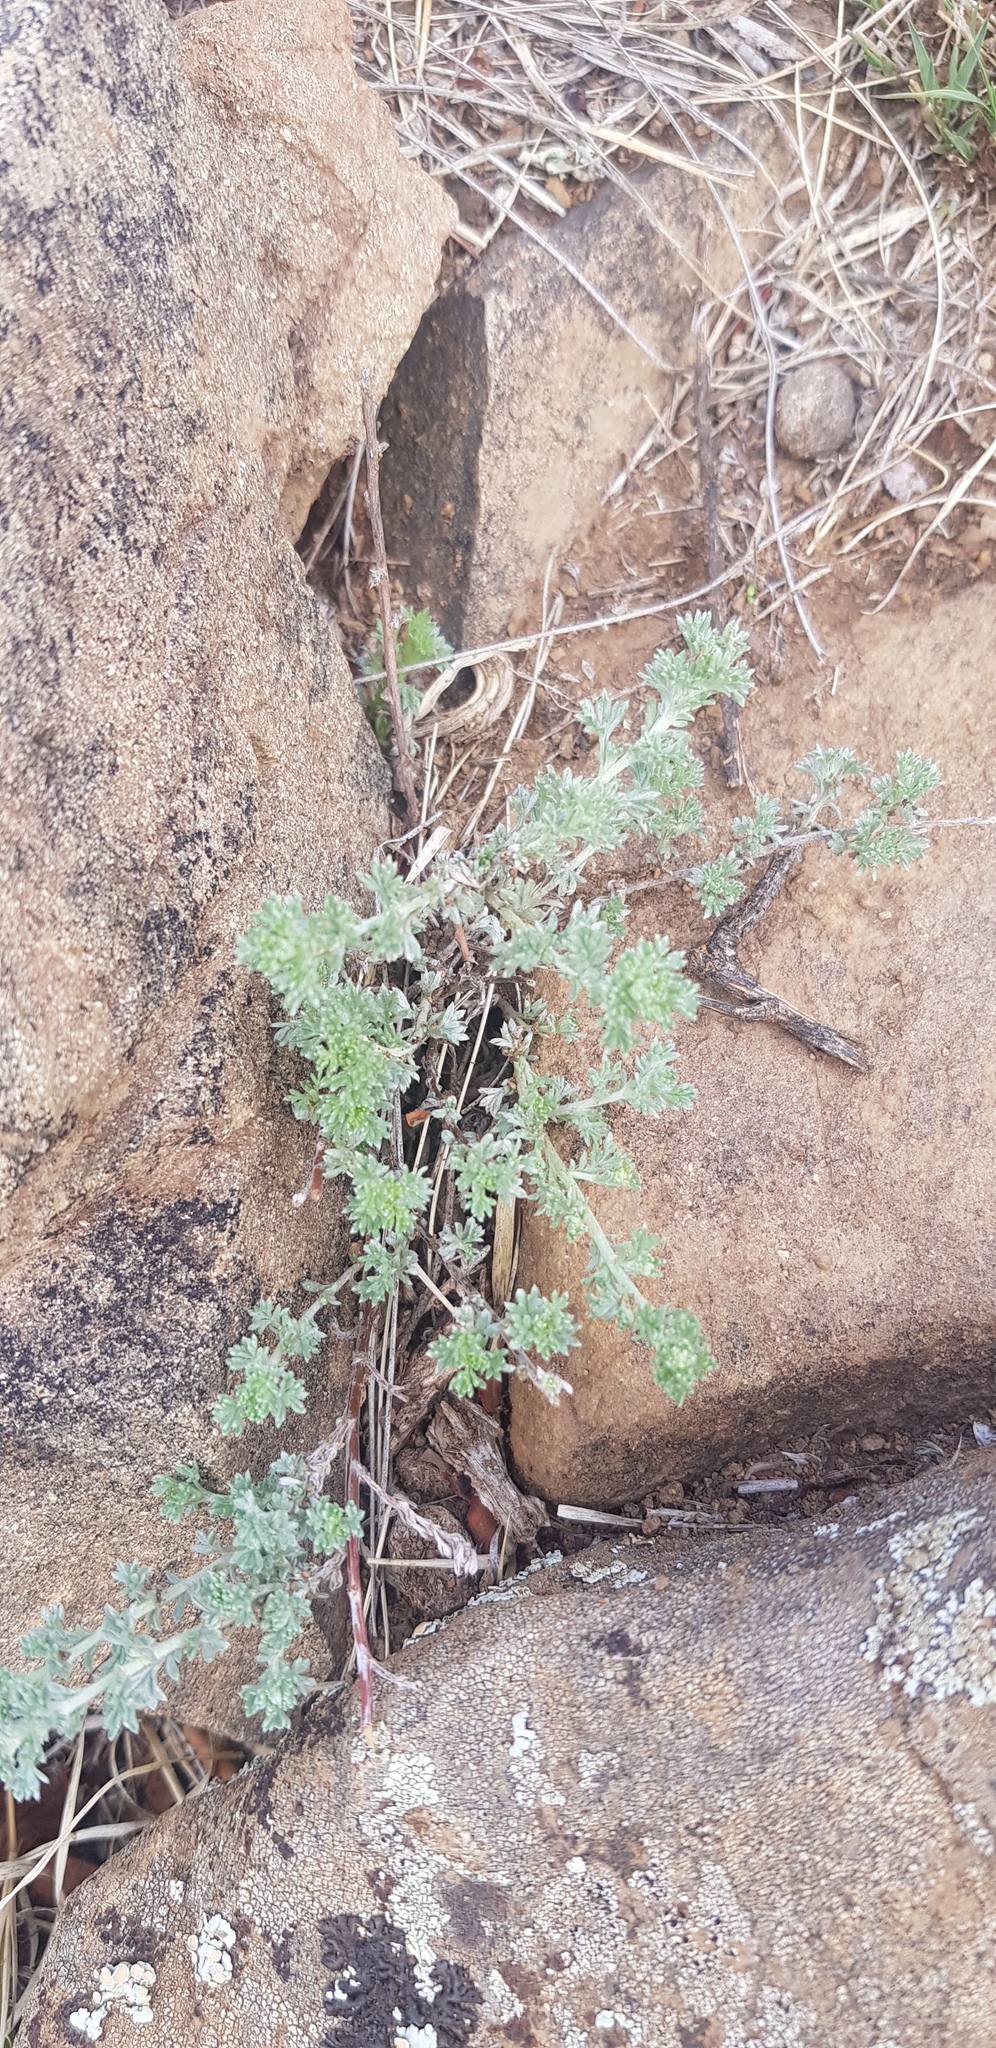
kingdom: Plantae
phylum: Tracheophyta
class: Magnoliopsida
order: Asterales
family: Asteraceae
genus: Artemisia
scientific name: Artemisia frigida
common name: Prairie sagewort
